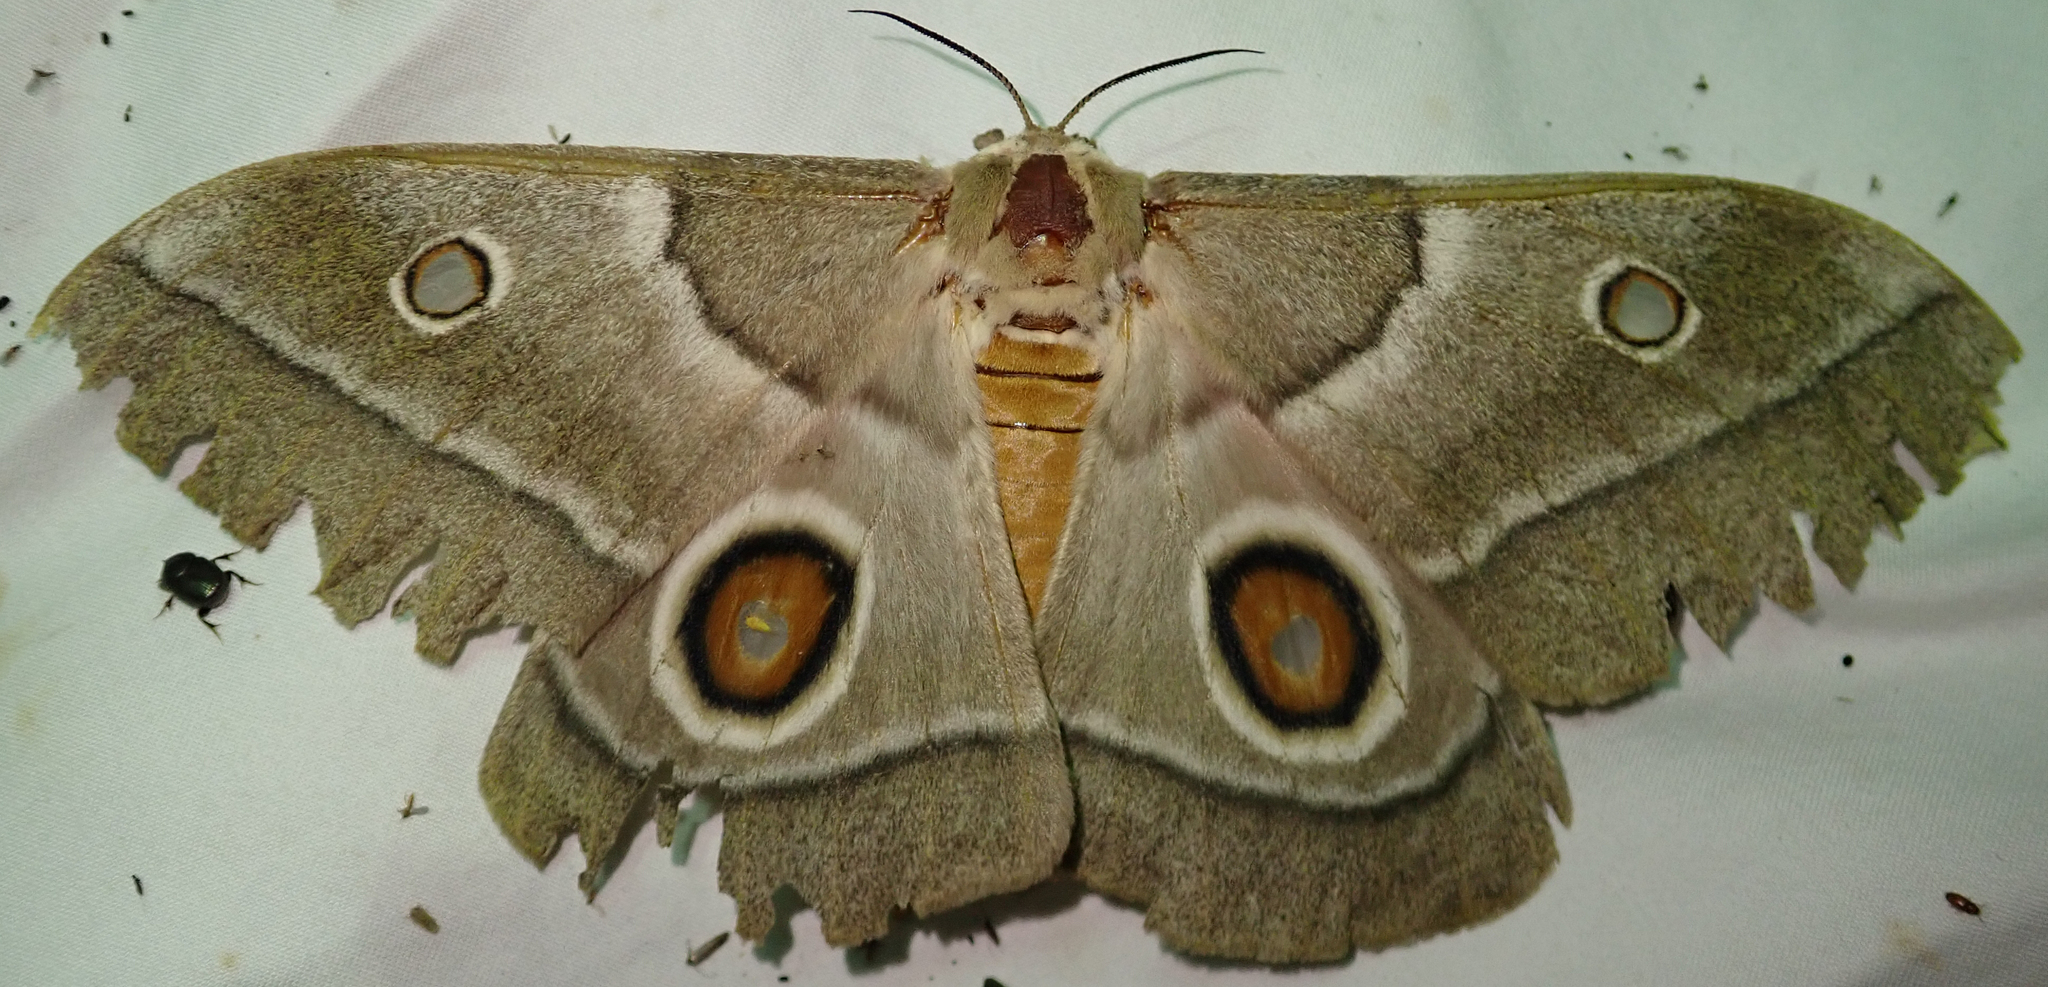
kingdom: Animalia
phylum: Arthropoda
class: Insecta
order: Lepidoptera
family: Saturniidae
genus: Gonimbrasia
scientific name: Gonimbrasia belina
